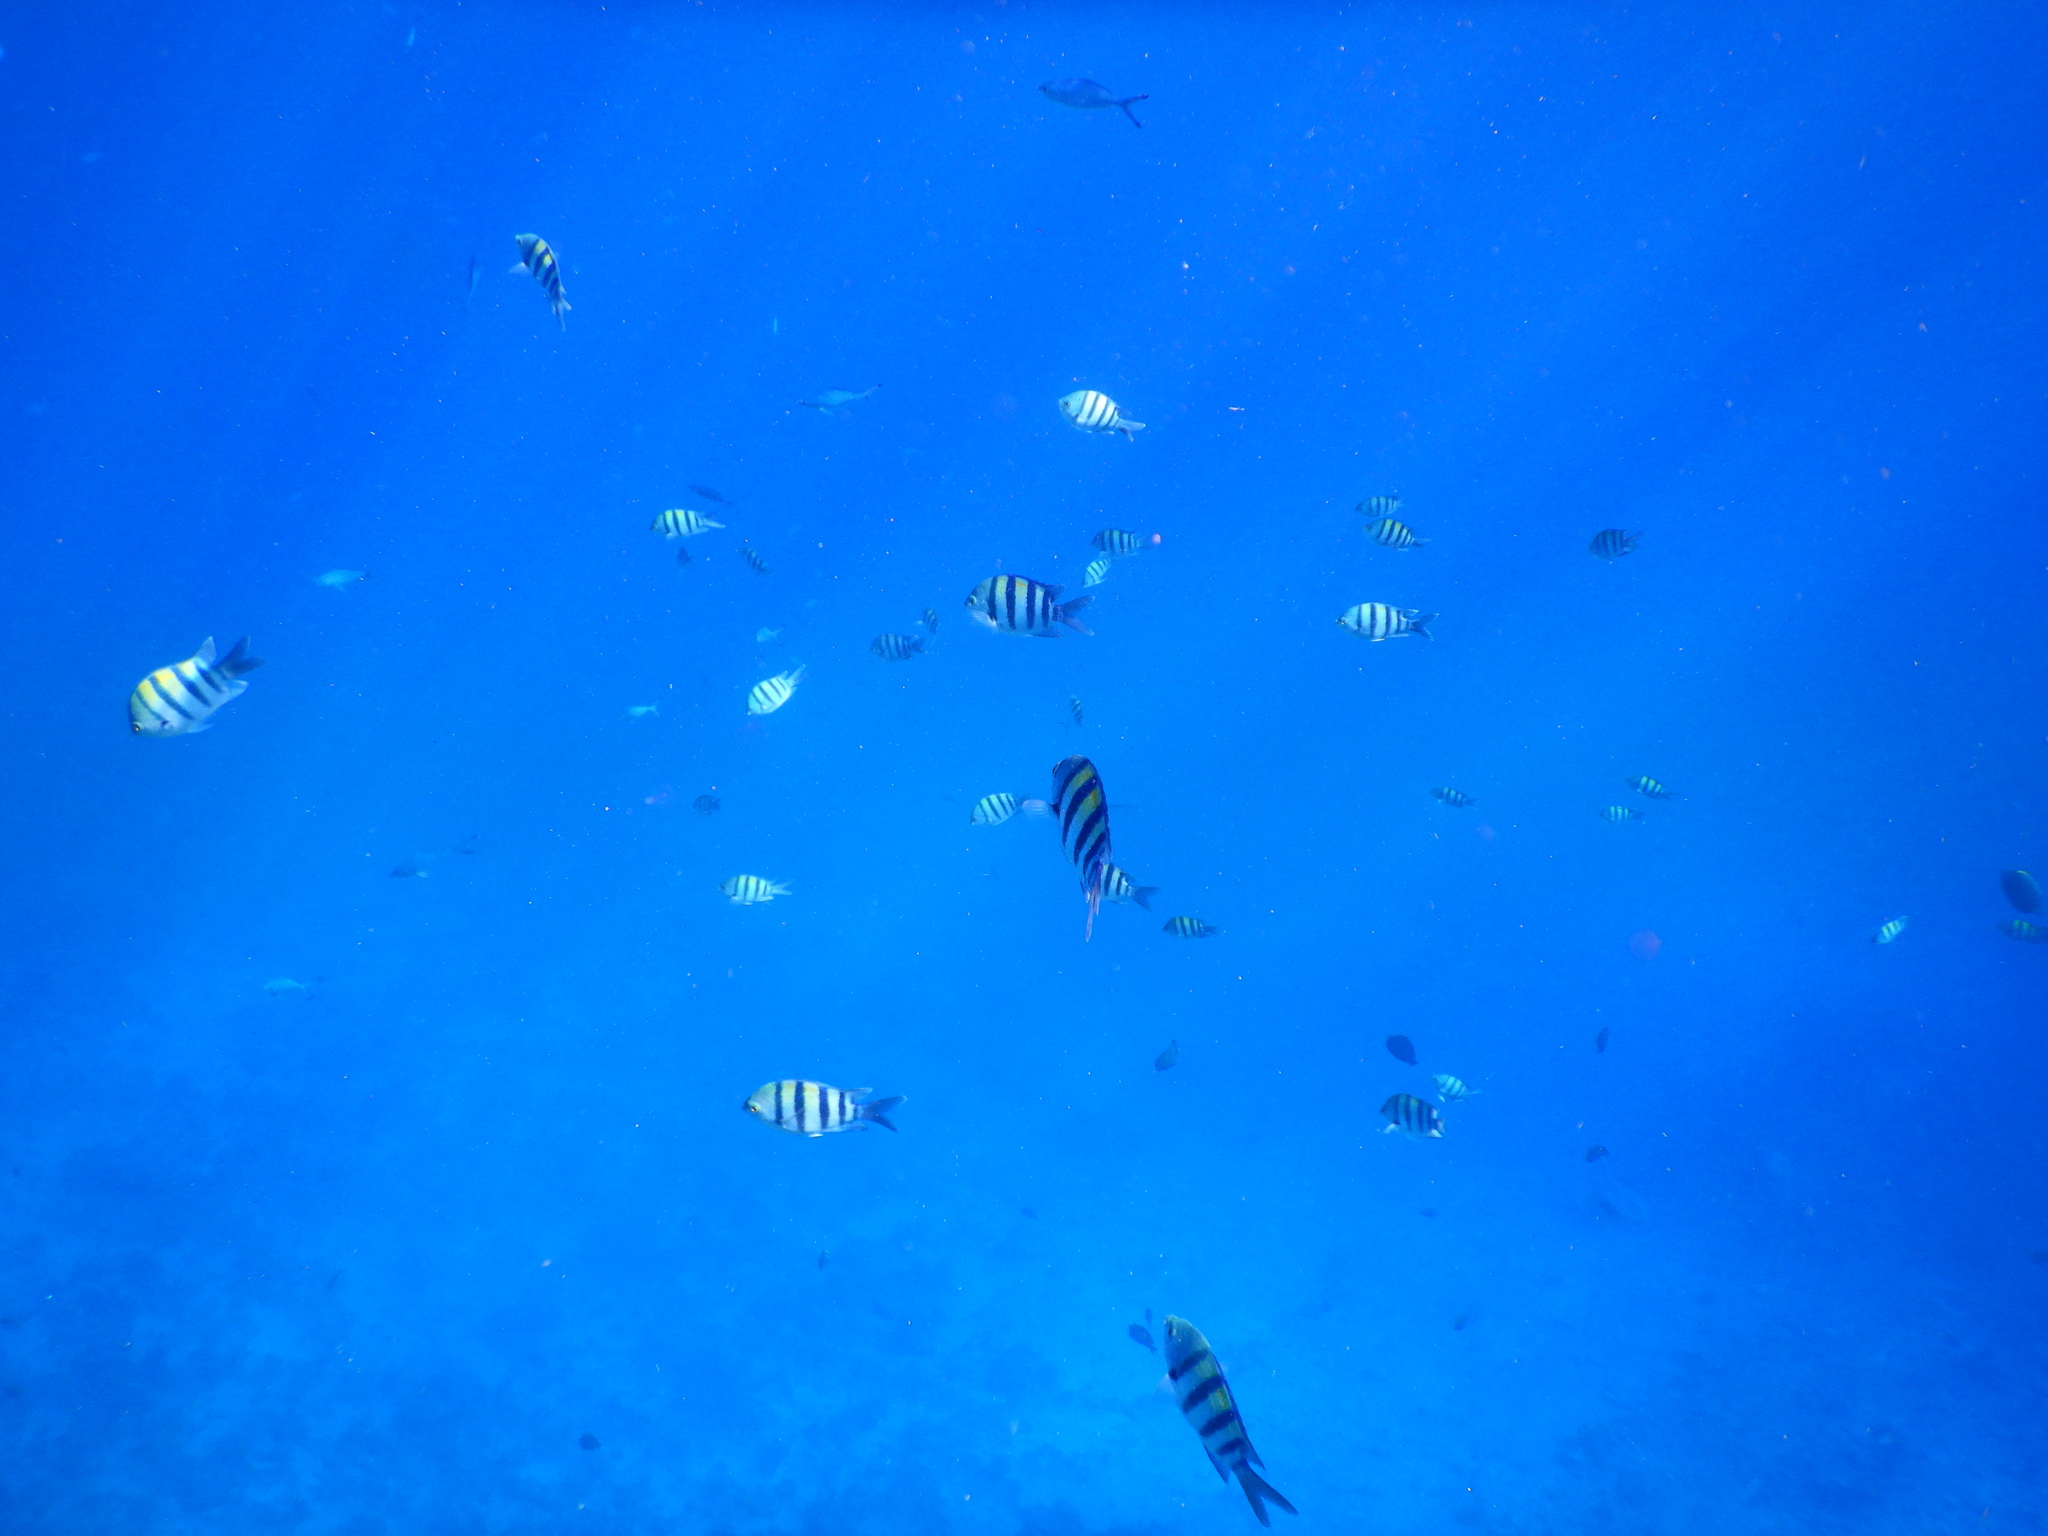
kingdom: Animalia
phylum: Chordata
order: Perciformes
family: Pomacentridae
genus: Abudefduf
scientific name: Abudefduf vaigiensis
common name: Indo-pacific sergeant
